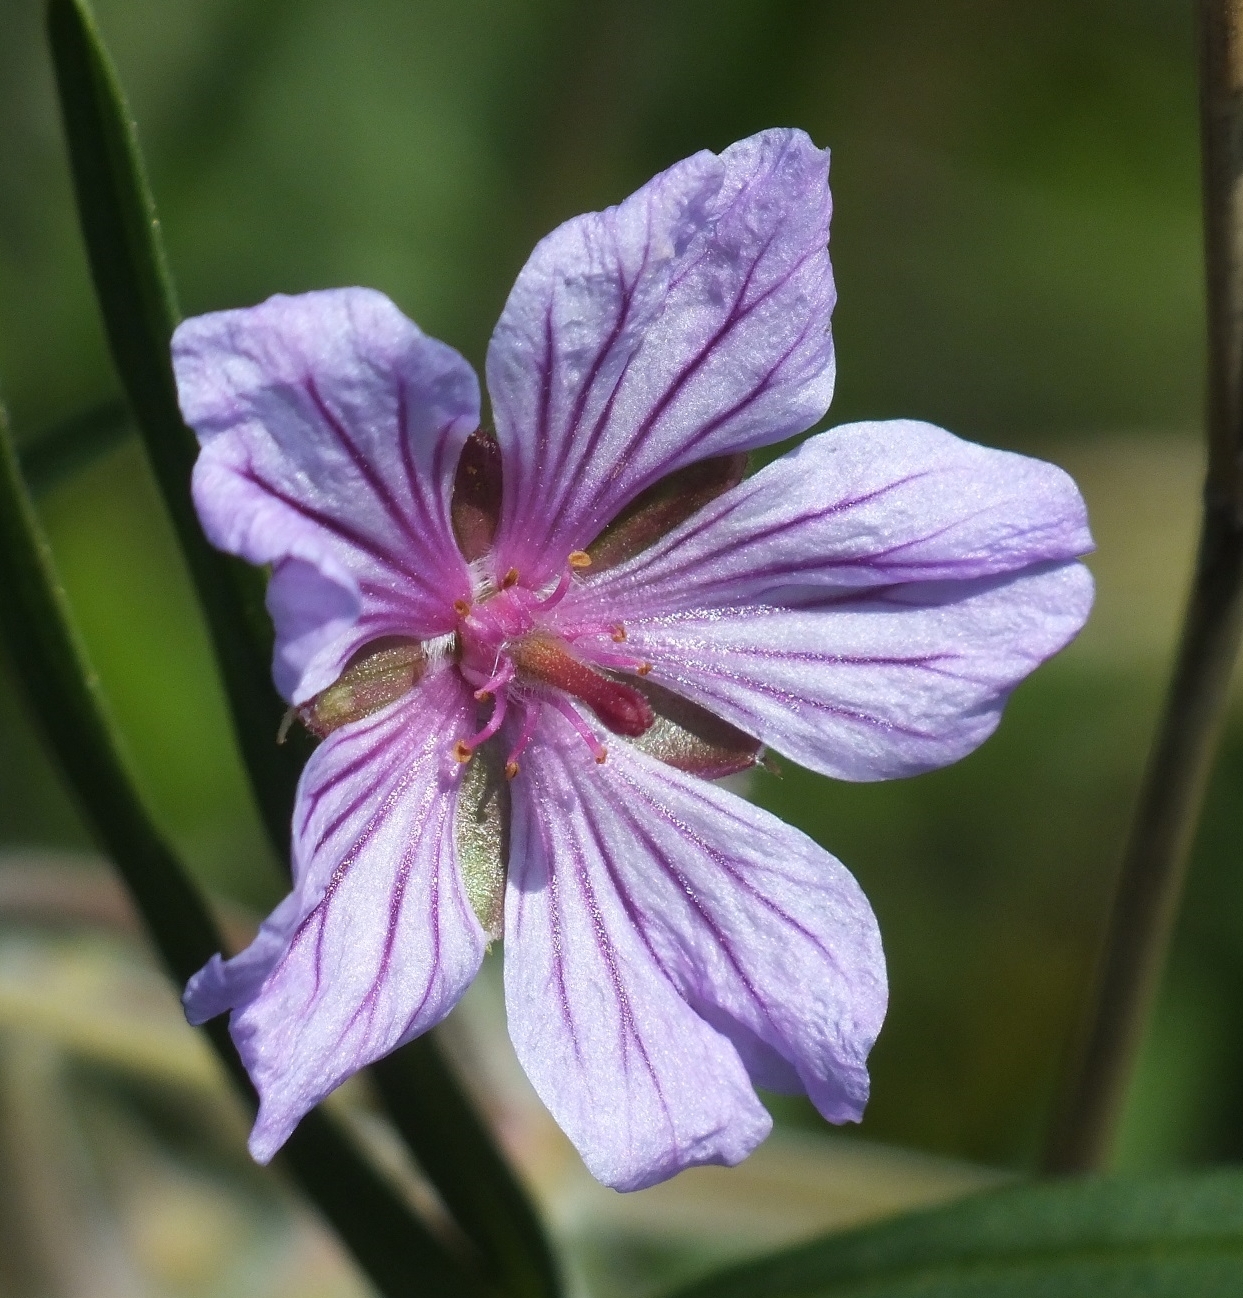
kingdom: Plantae
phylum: Tracheophyta
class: Magnoliopsida
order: Geraniales
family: Geraniaceae
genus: Geranium
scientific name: Geranium linearilobum
